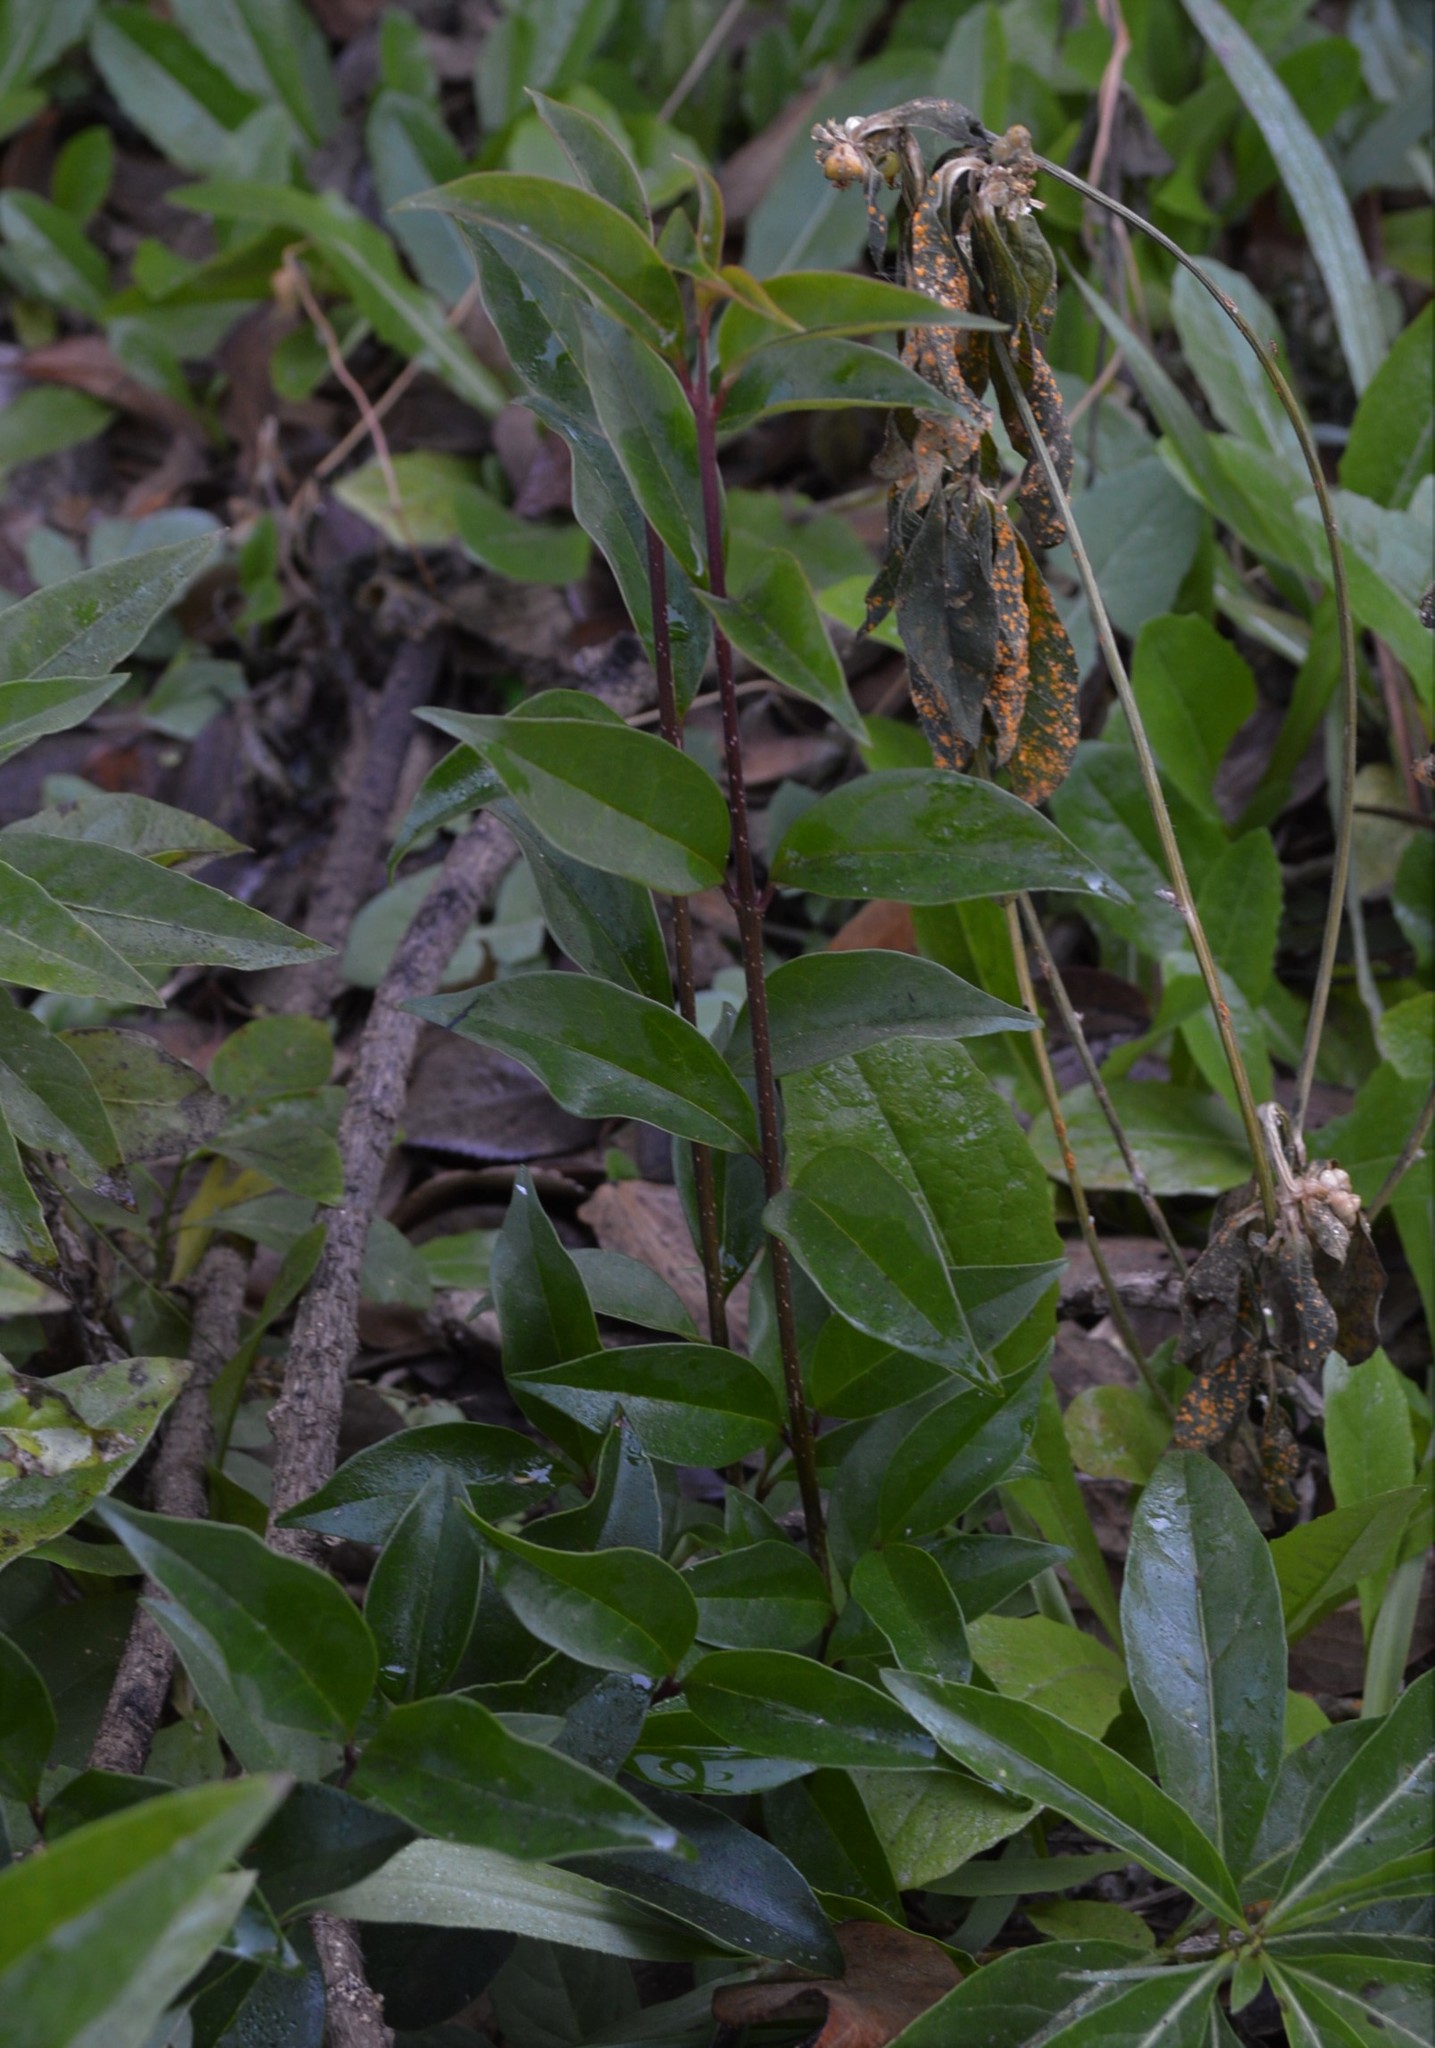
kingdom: Plantae
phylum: Tracheophyta
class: Magnoliopsida
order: Lamiales
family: Oleaceae
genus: Ligustrum
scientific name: Ligustrum lucidum
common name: Glossy privet
